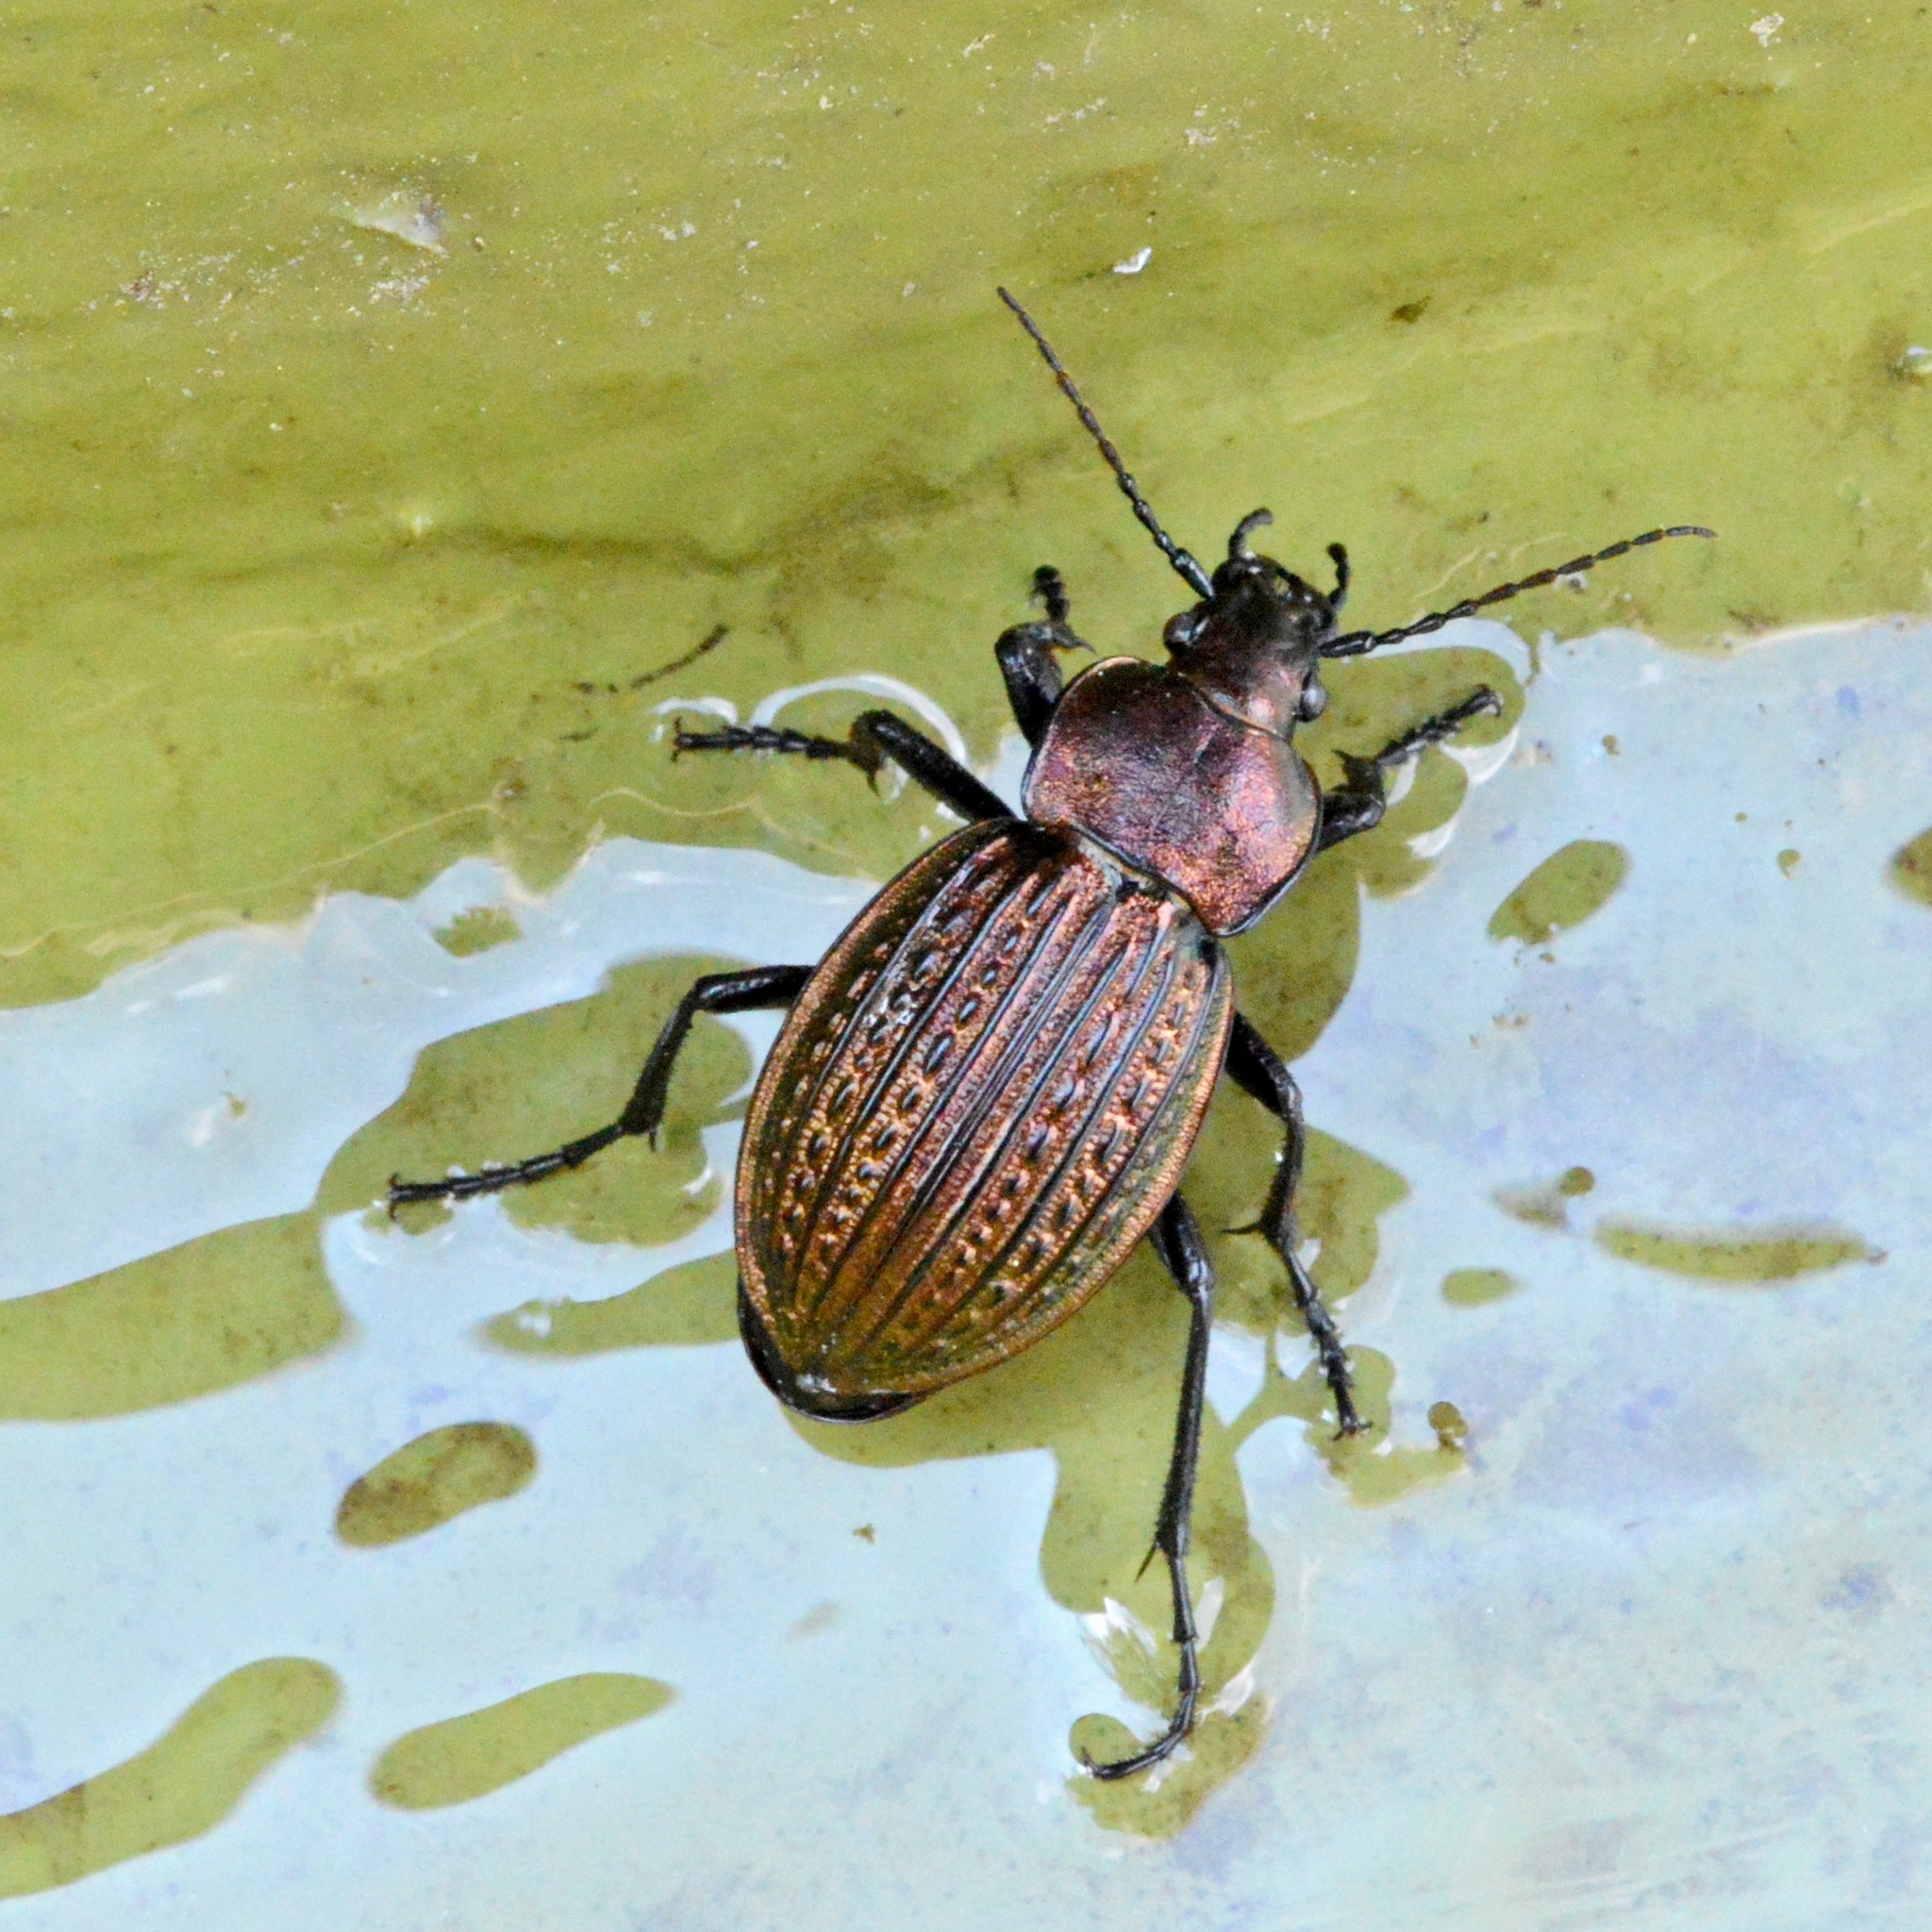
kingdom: Animalia
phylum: Arthropoda
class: Insecta
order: Coleoptera
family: Carabidae
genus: Carabus
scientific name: Carabus ulrichii
